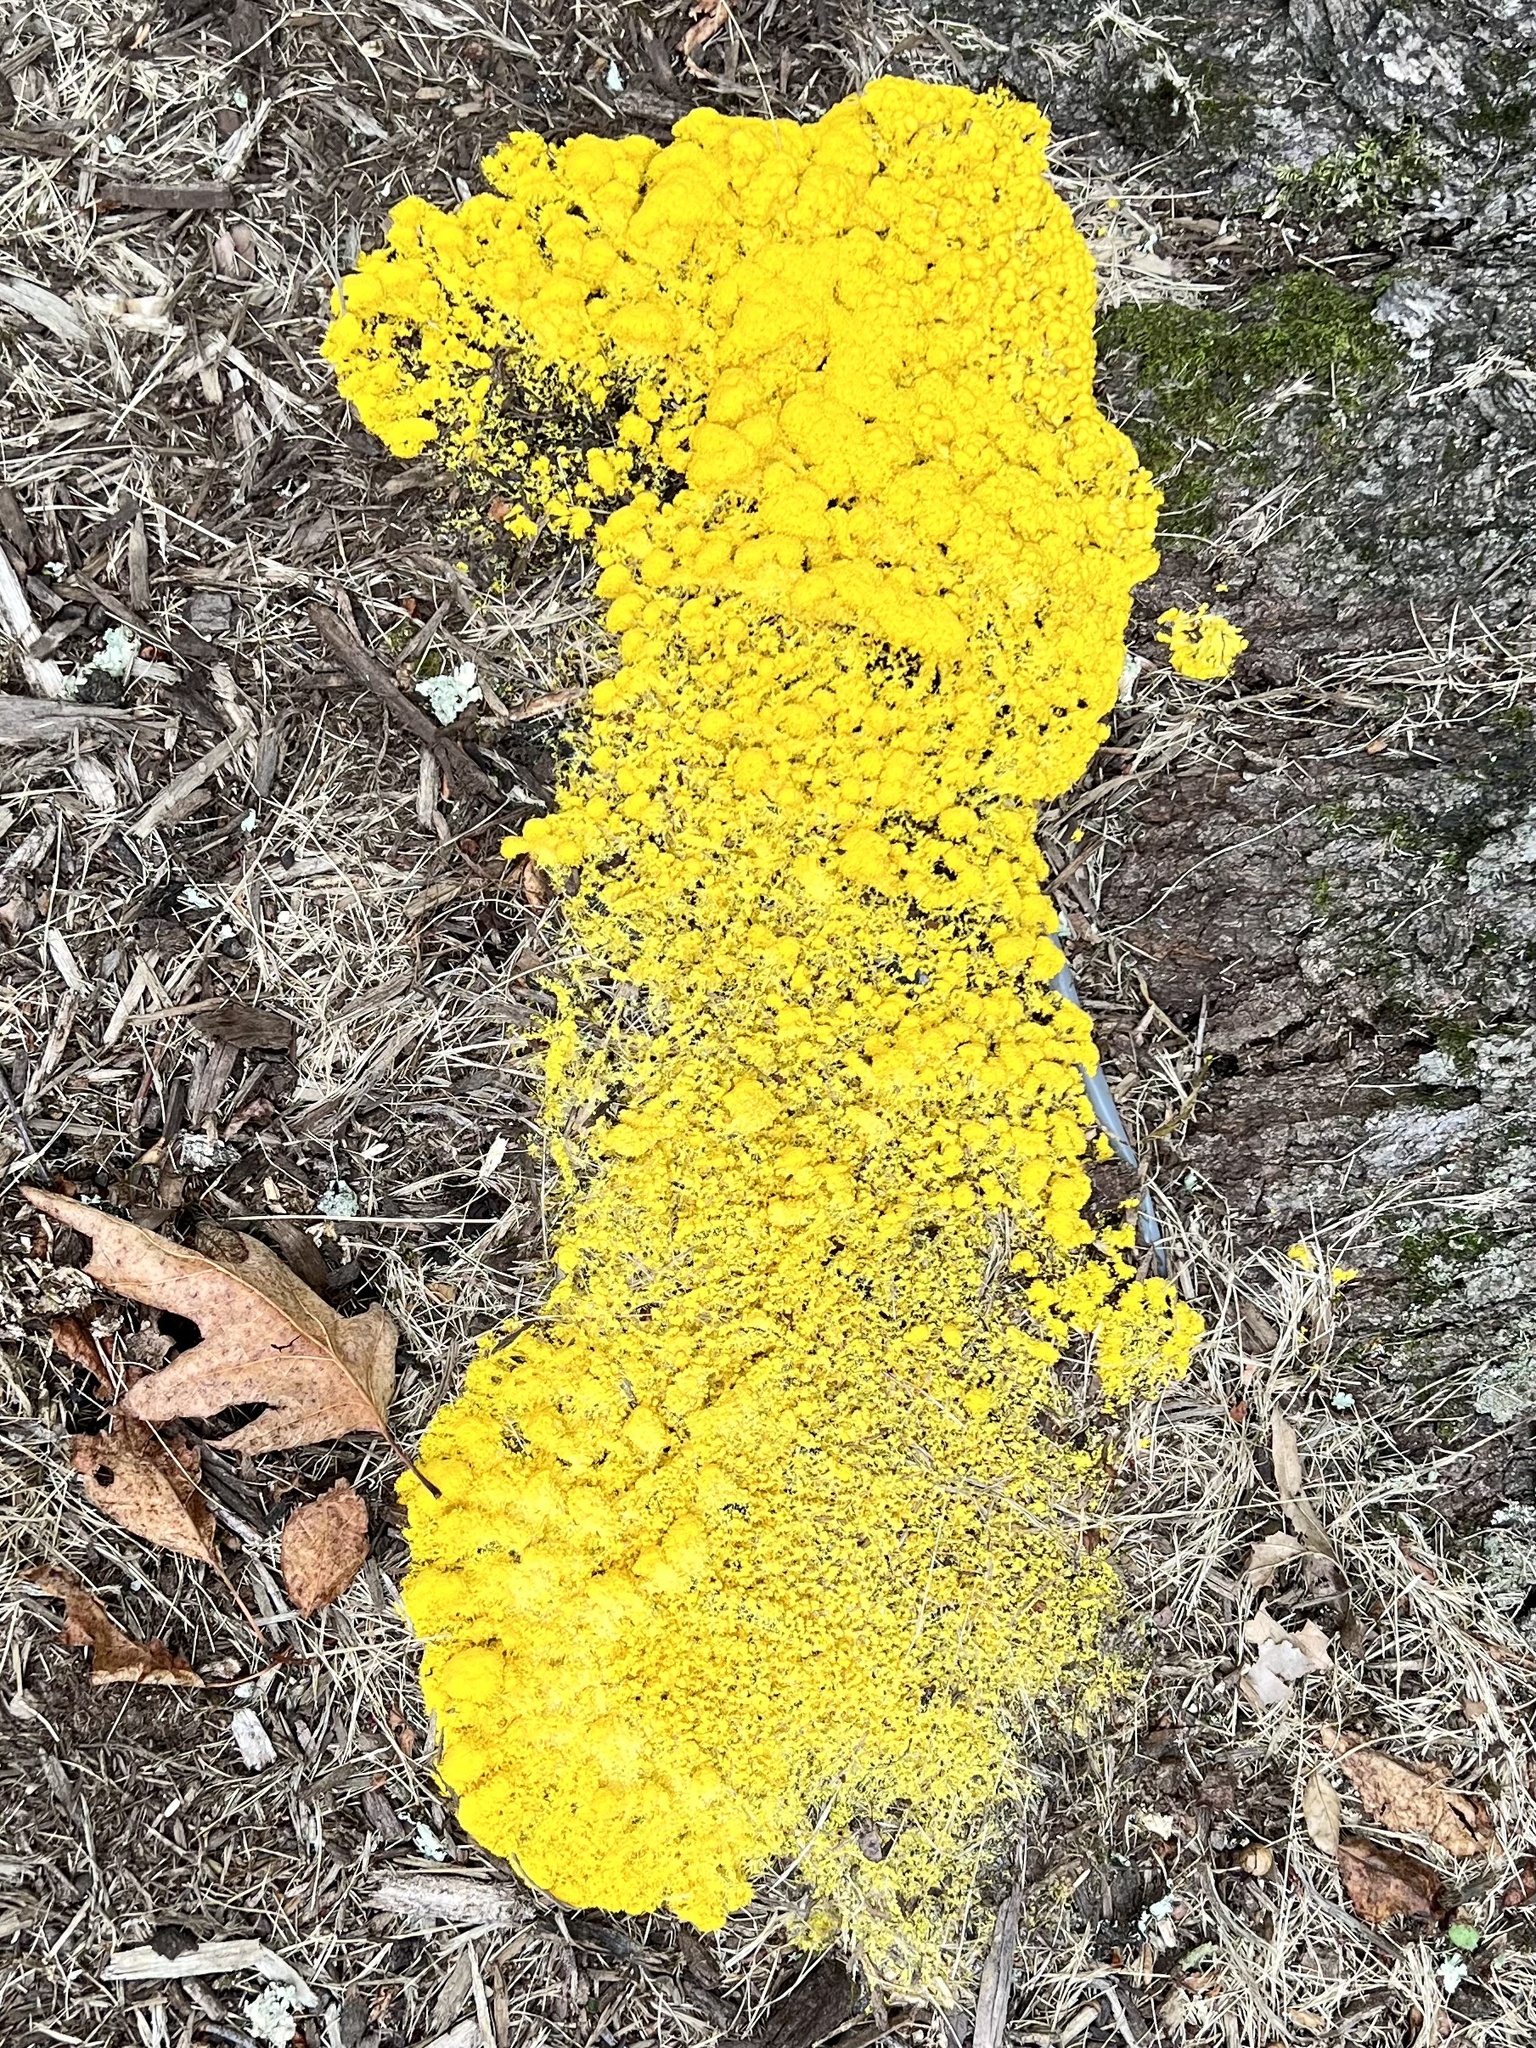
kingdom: Protozoa
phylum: Mycetozoa
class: Myxomycetes
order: Physarales
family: Physaraceae
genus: Fuligo
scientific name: Fuligo septica
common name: Dog vomit slime mold
